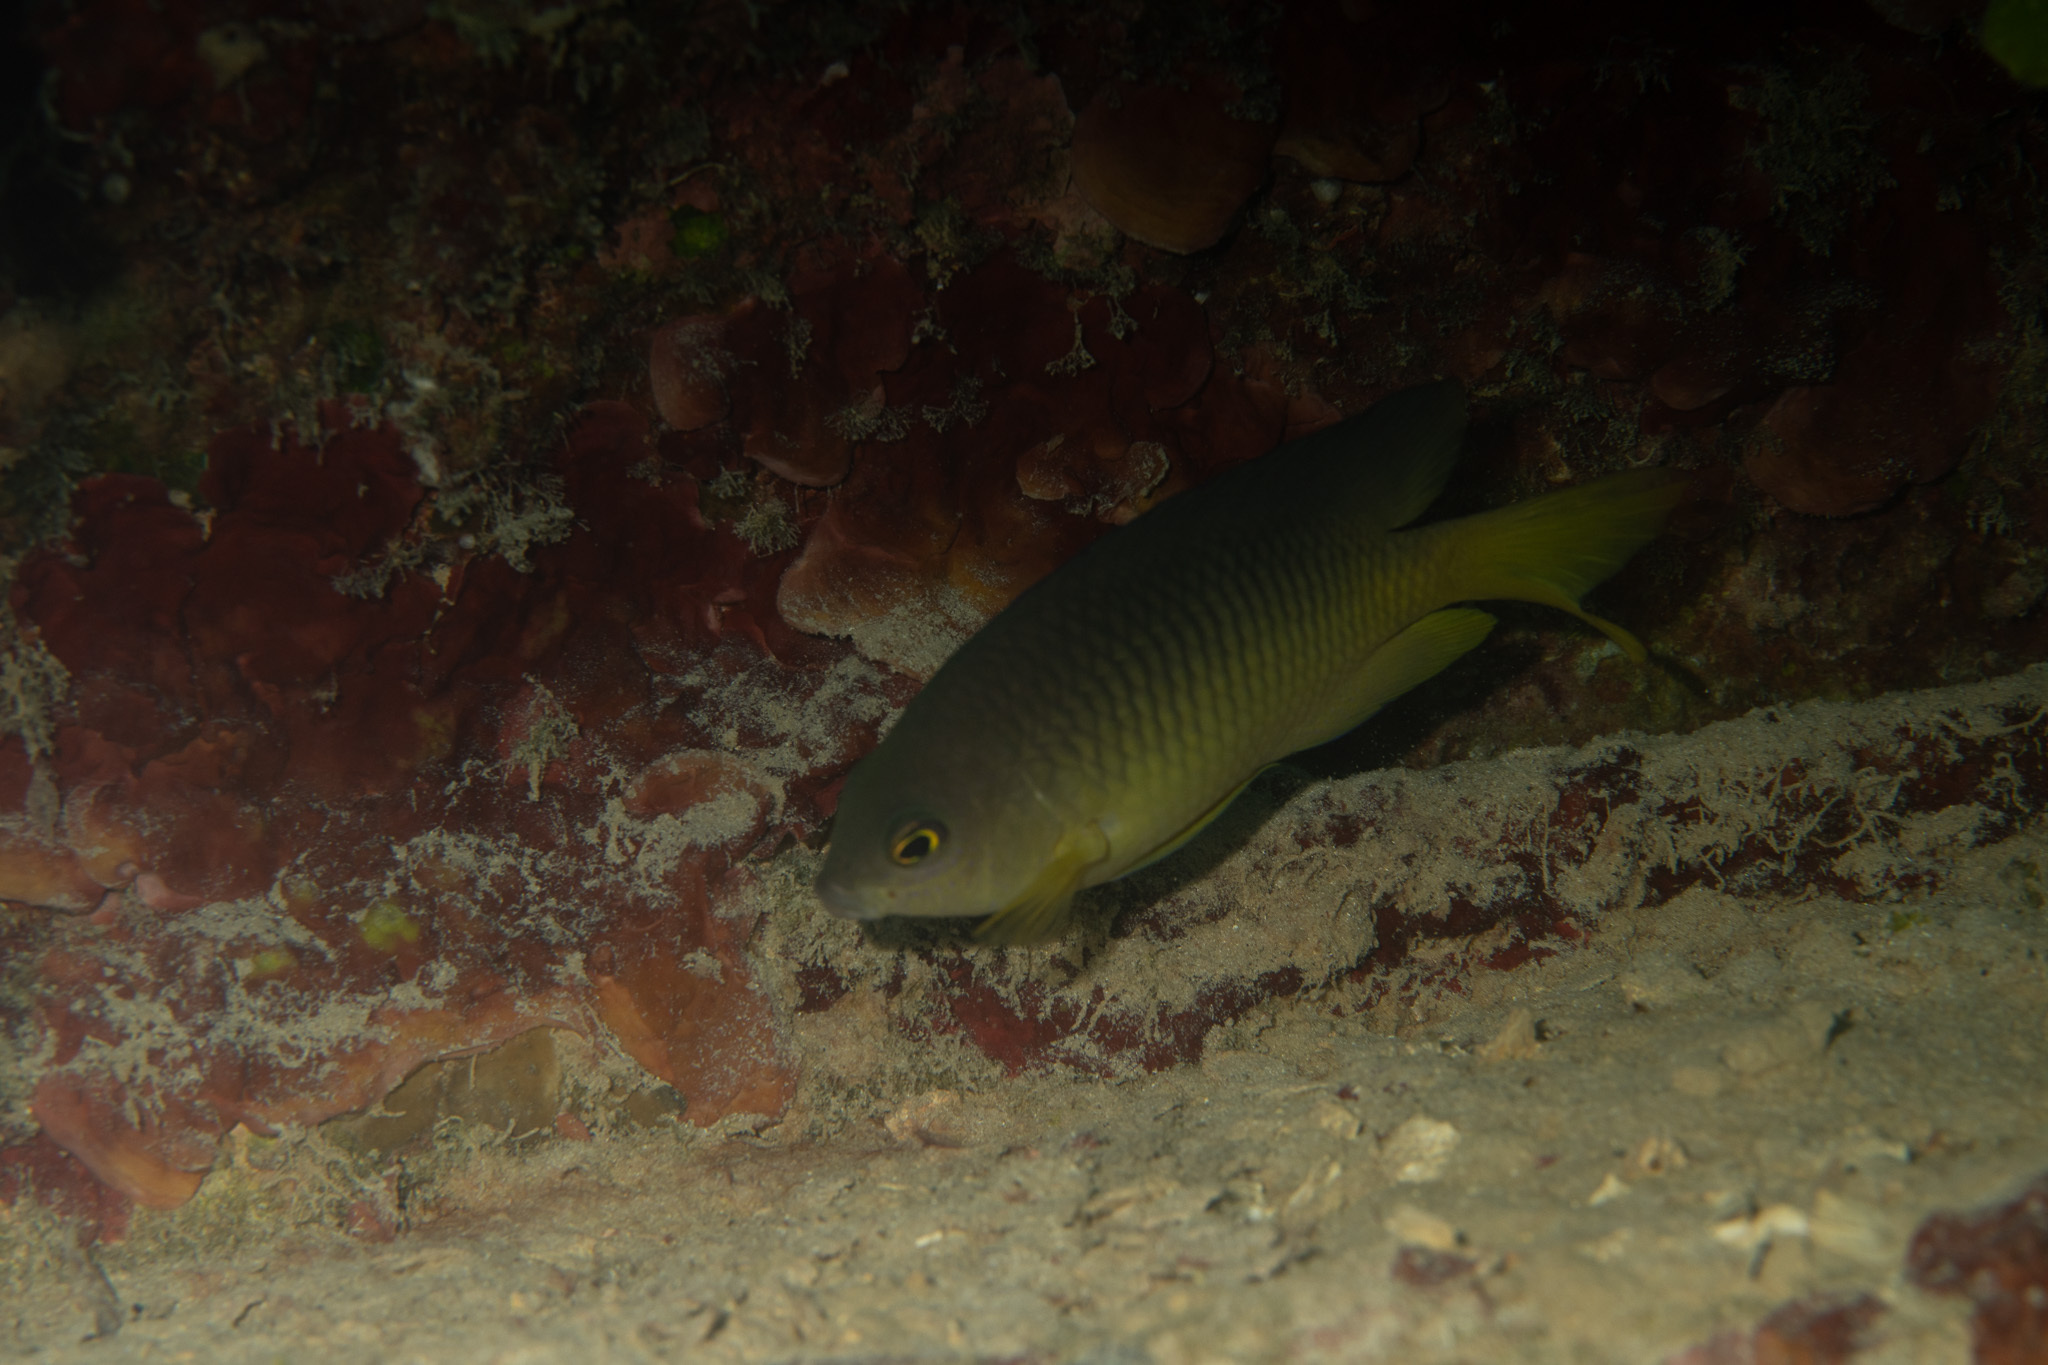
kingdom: Animalia
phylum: Chordata
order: Perciformes
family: Pomacentridae
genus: Stegastes
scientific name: Stegastes xanthurus
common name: Cocoa damselfish
